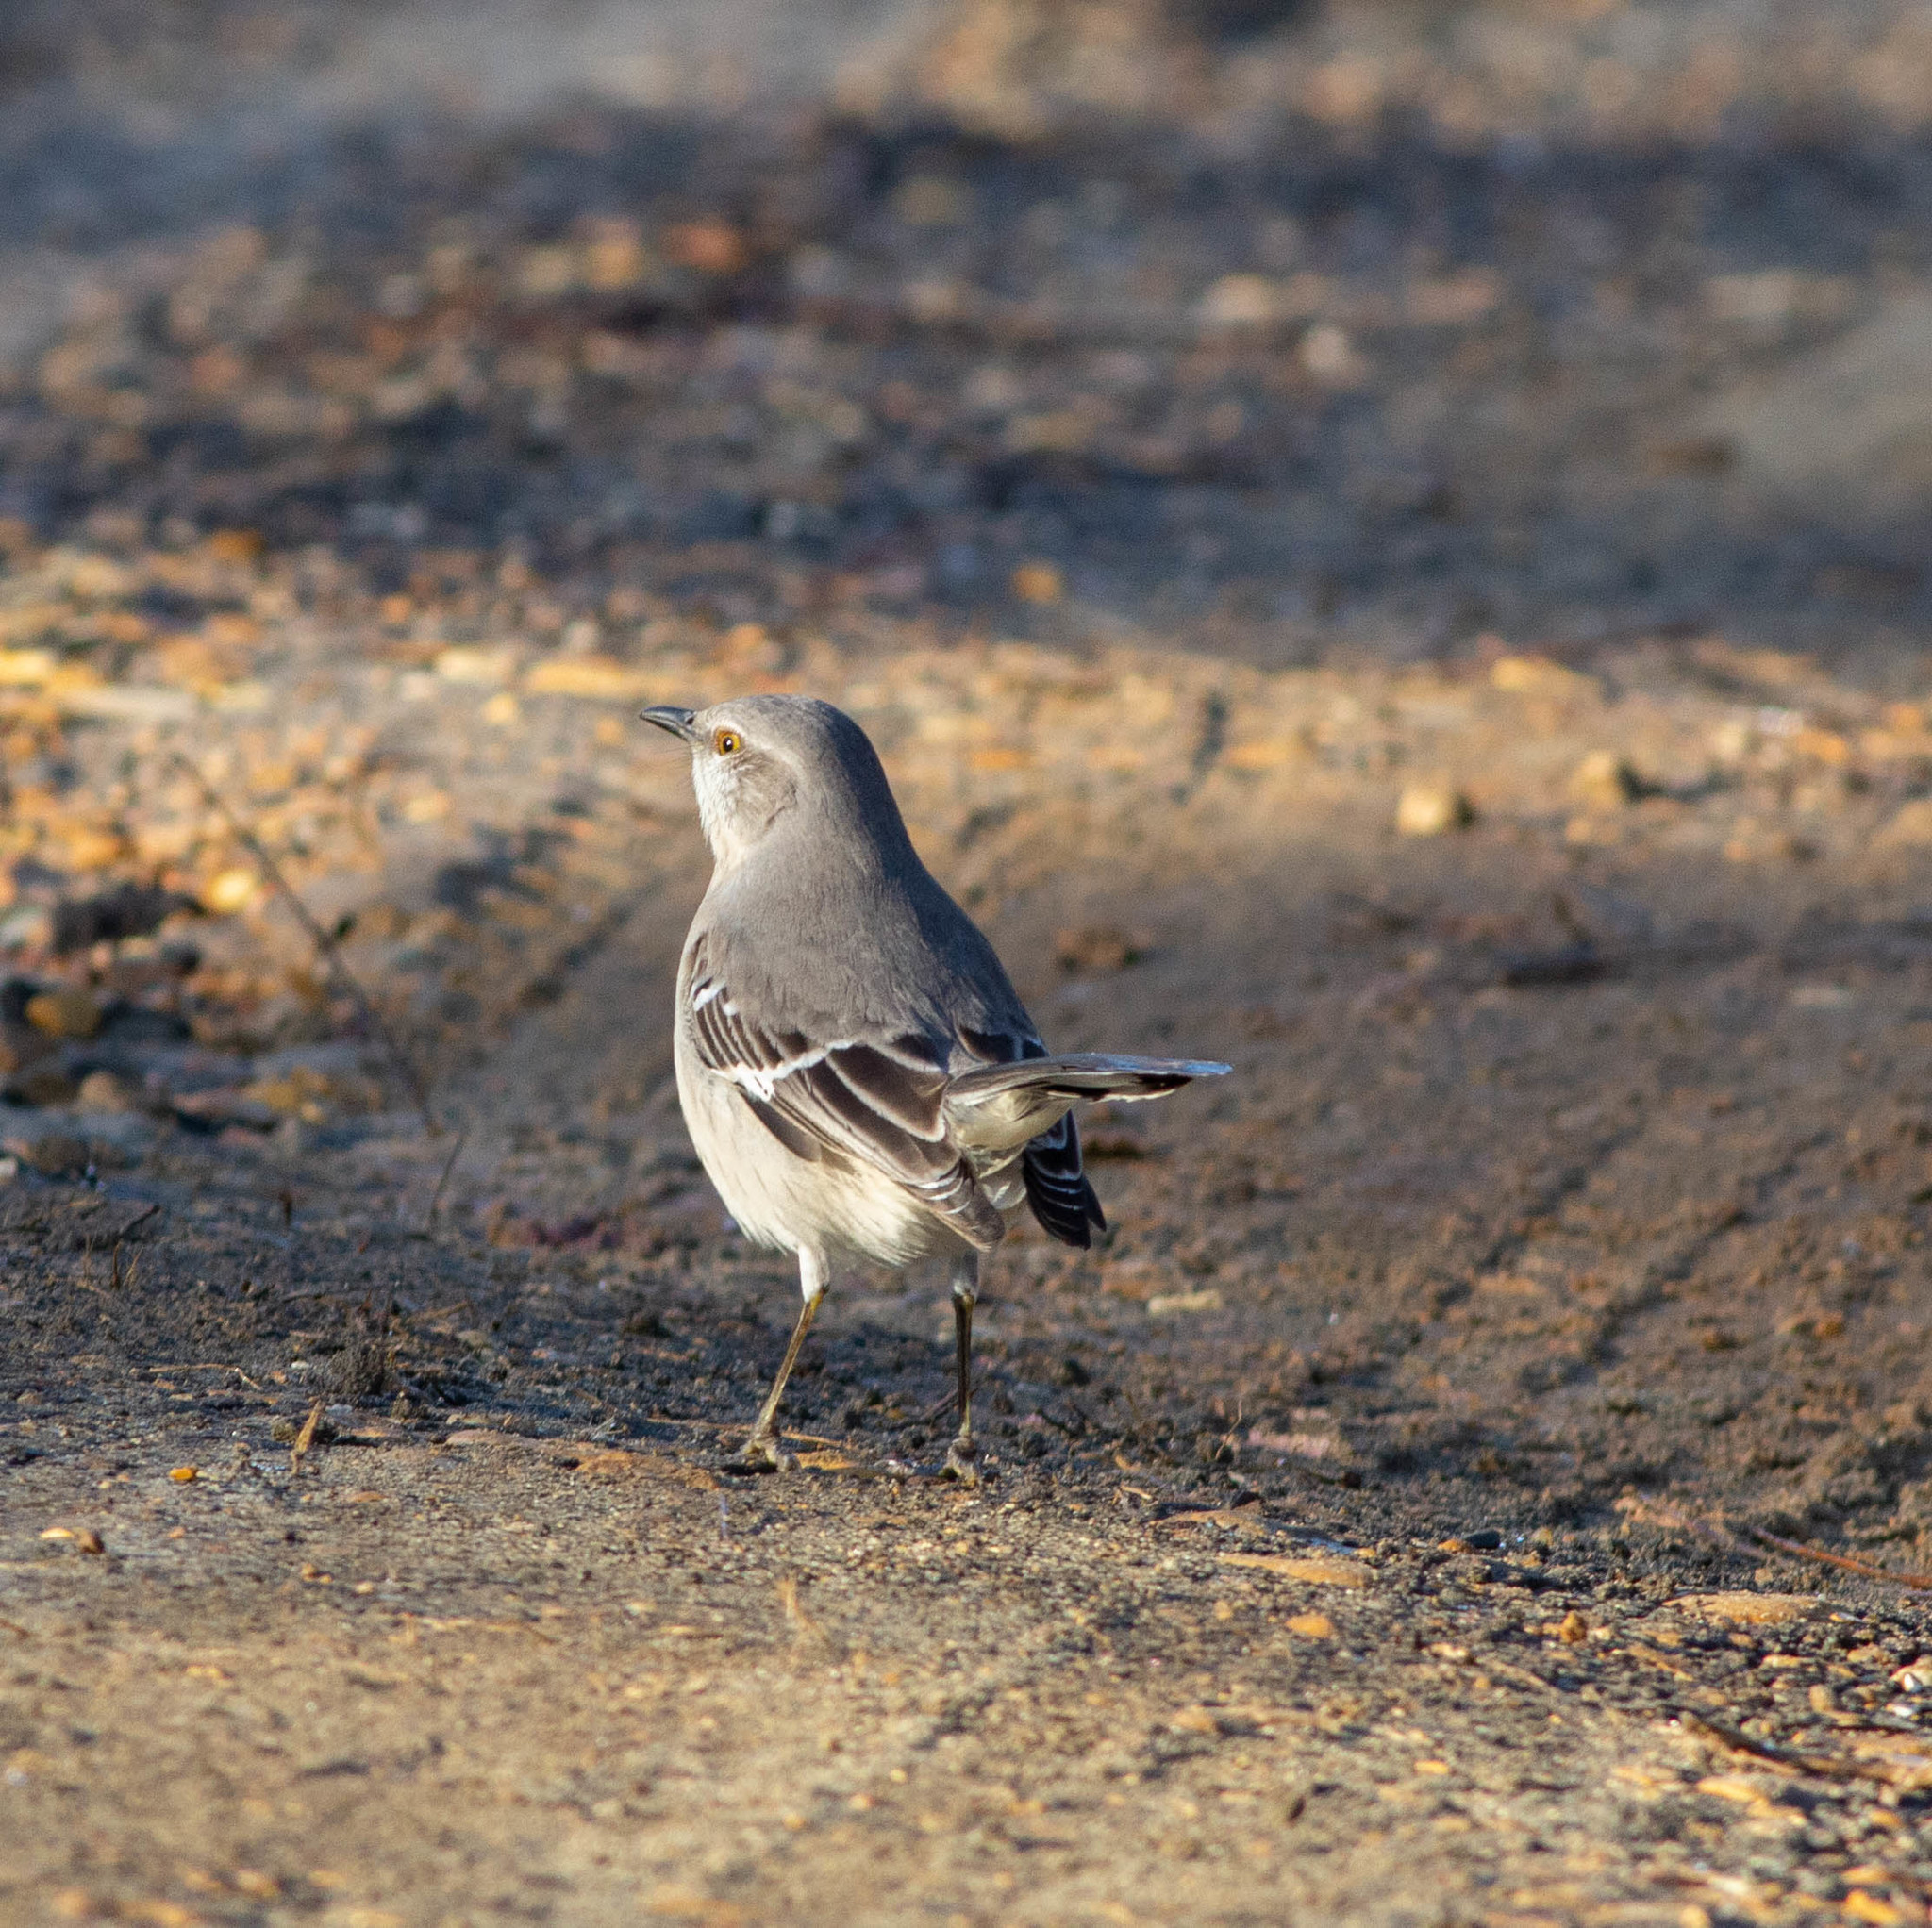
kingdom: Animalia
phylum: Chordata
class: Aves
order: Passeriformes
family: Mimidae
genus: Mimus
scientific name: Mimus polyglottos
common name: Northern mockingbird
